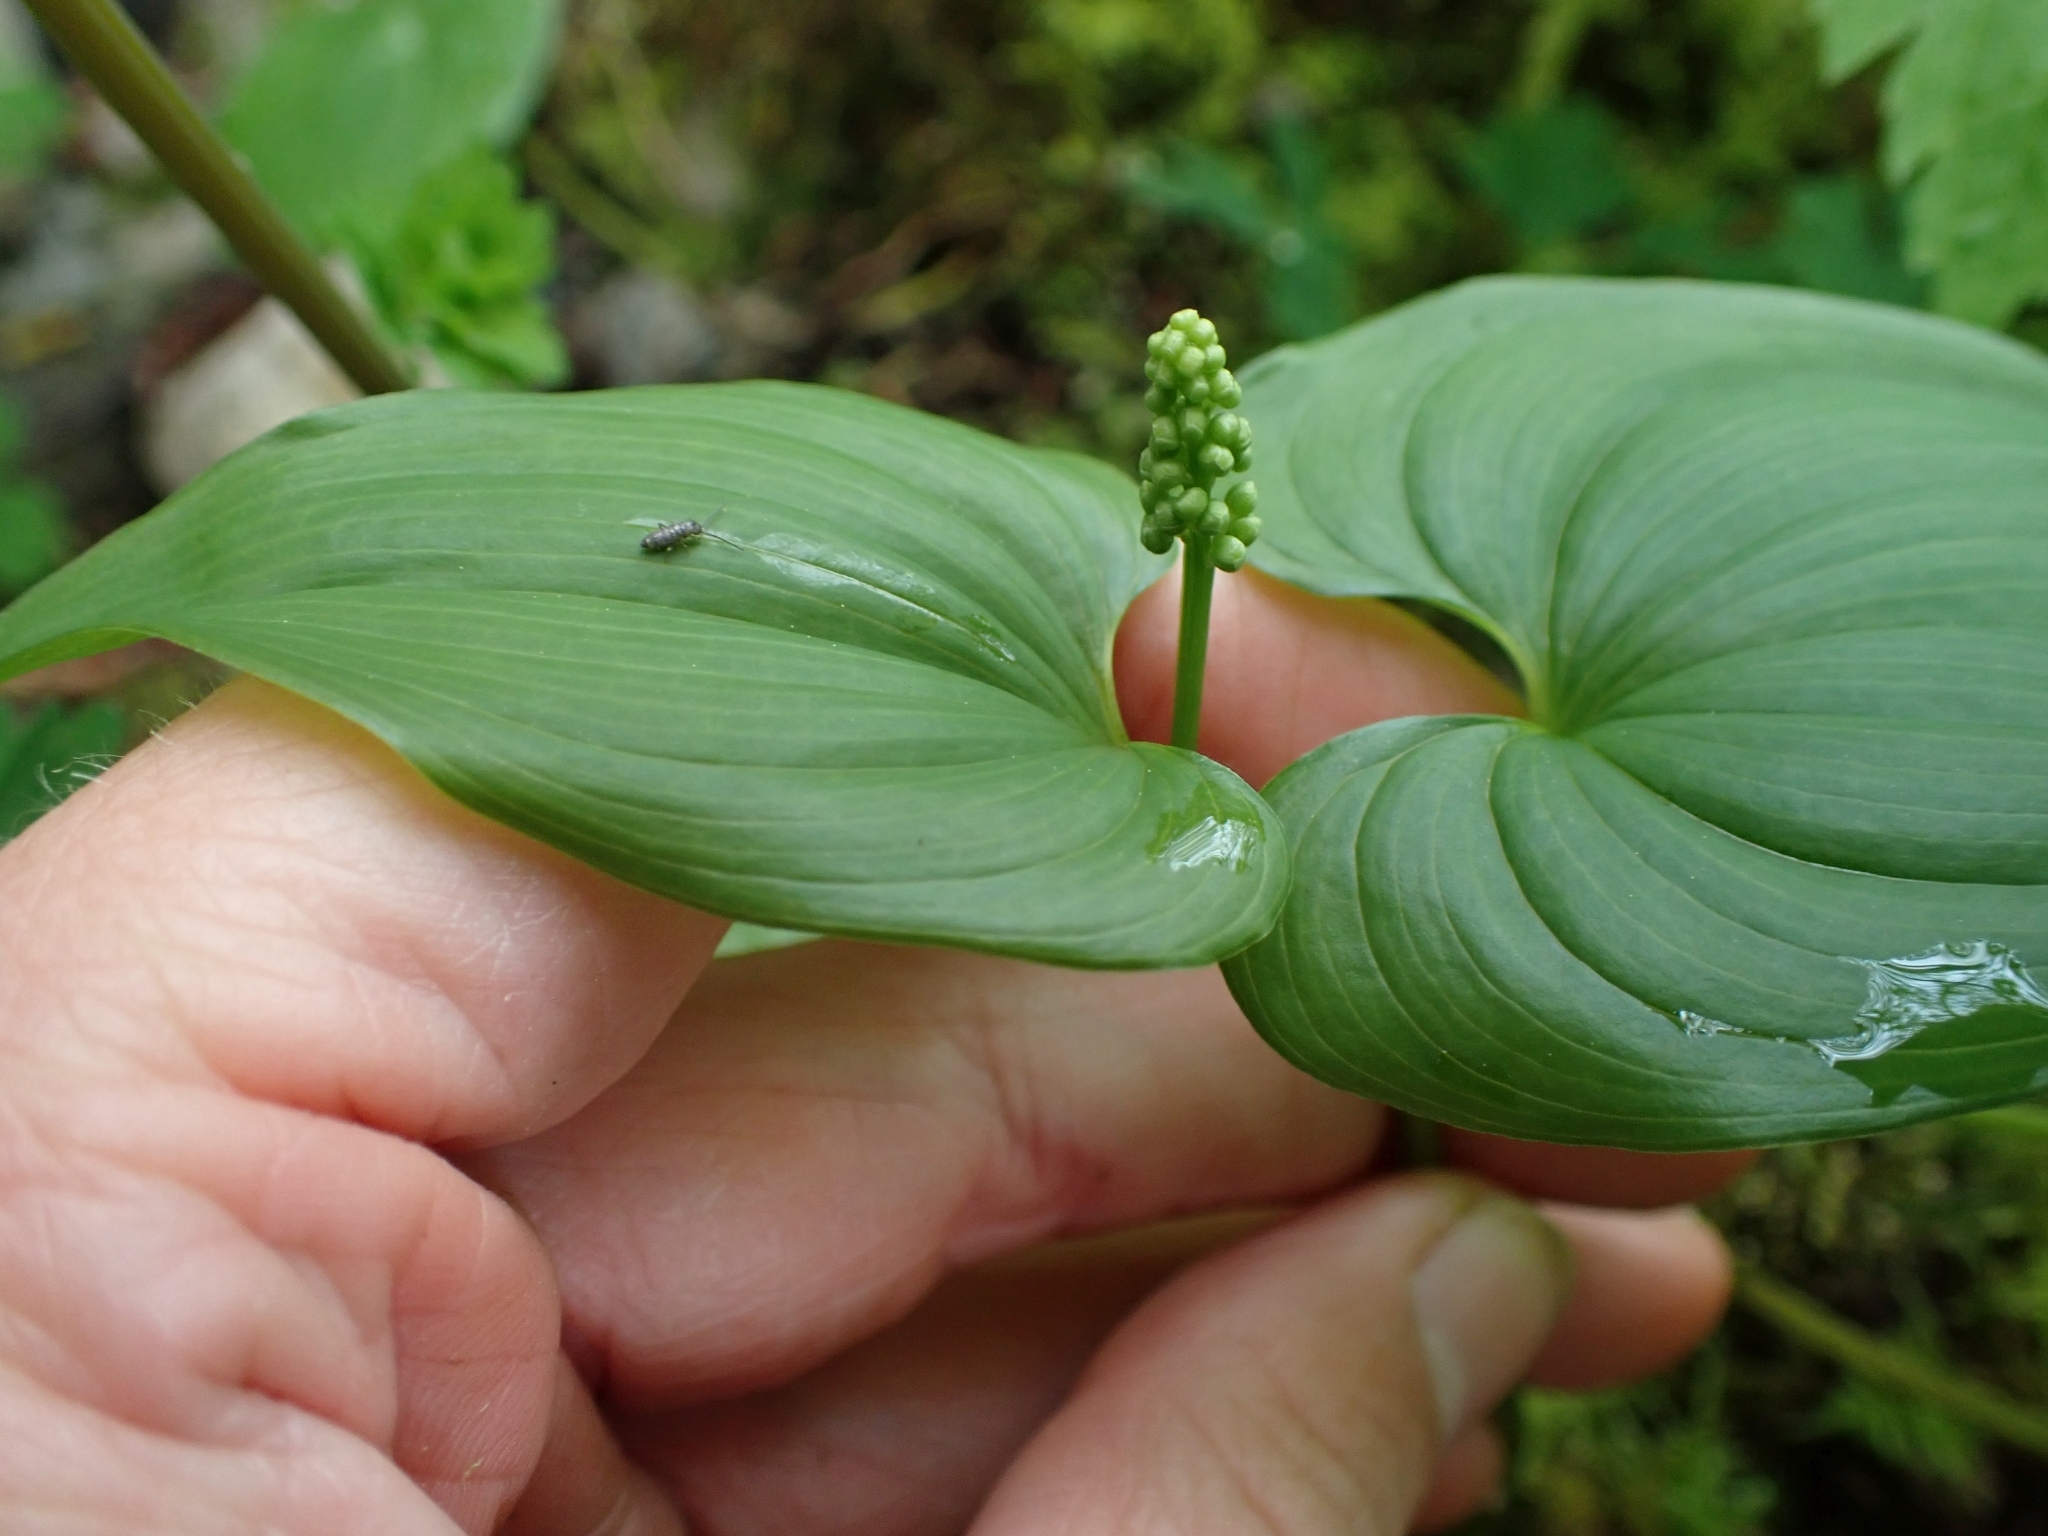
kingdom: Plantae
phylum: Tracheophyta
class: Liliopsida
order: Asparagales
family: Asparagaceae
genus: Maianthemum
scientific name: Maianthemum dilatatum
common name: False lily-of-the-valley
